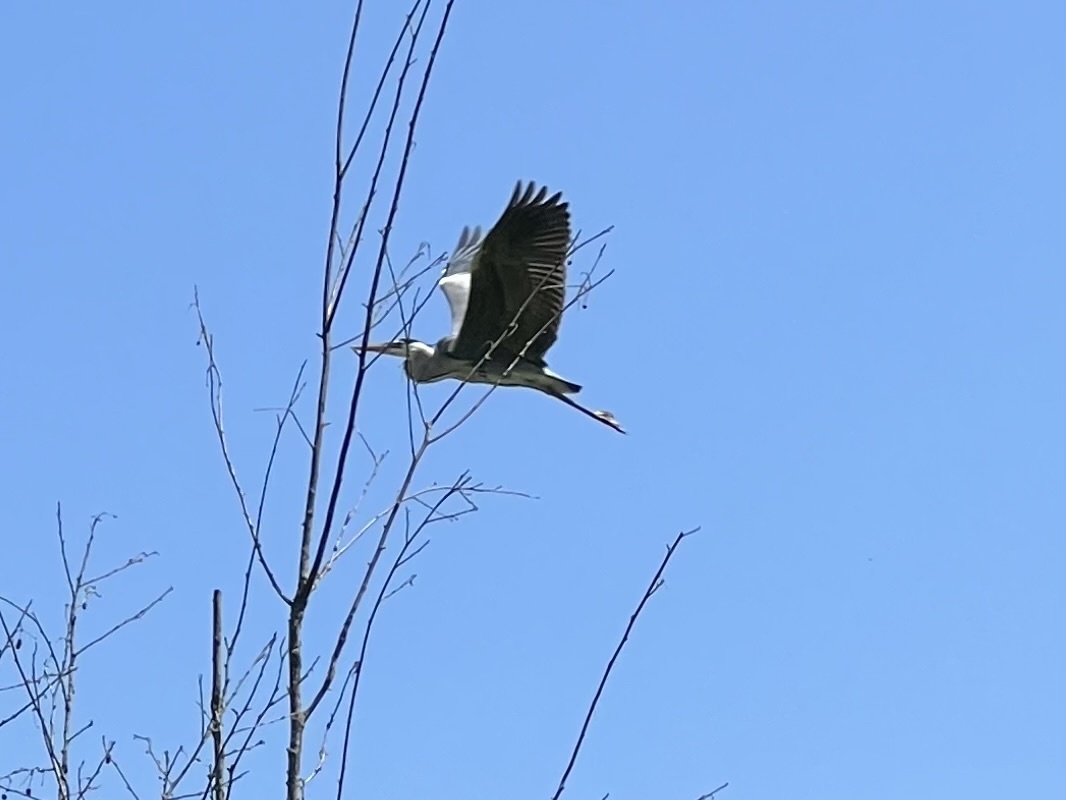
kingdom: Animalia
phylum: Chordata
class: Aves
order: Pelecaniformes
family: Ardeidae
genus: Ardea
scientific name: Ardea cinerea
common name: Grey heron
